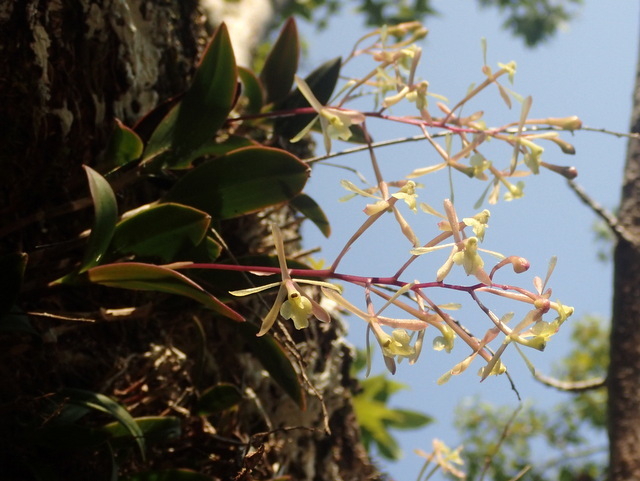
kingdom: Plantae
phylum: Tracheophyta
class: Liliopsida
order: Asparagales
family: Orchidaceae
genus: Epidendrum
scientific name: Epidendrum conopseum
